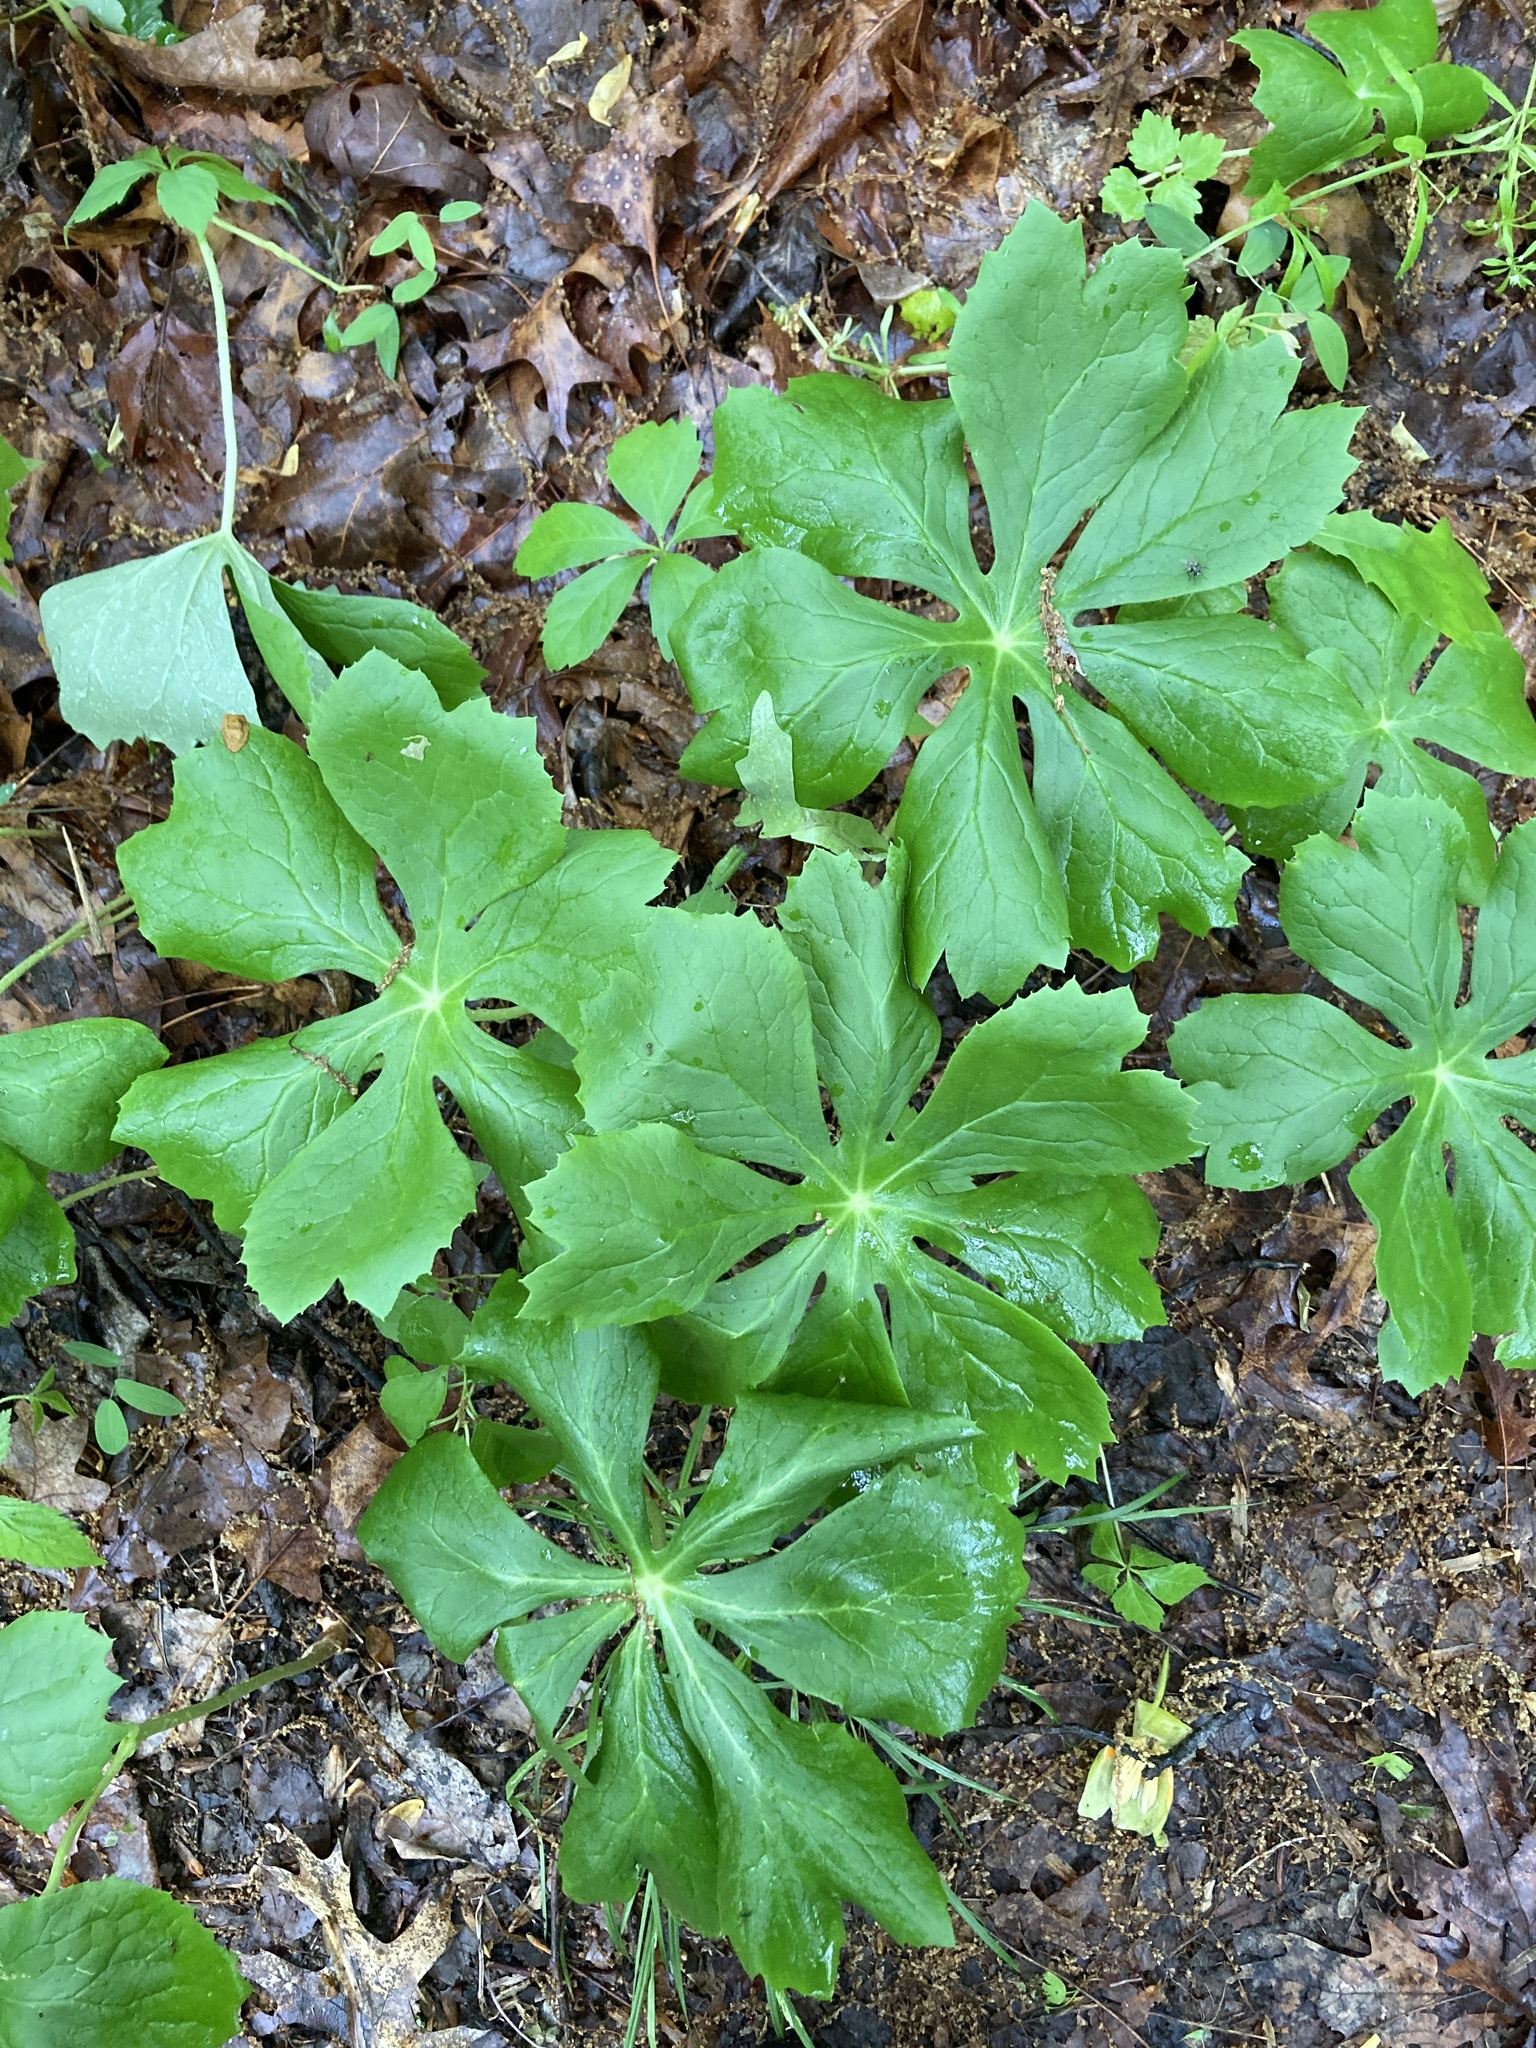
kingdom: Plantae
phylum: Tracheophyta
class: Magnoliopsida
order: Ranunculales
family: Berberidaceae
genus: Podophyllum
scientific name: Podophyllum peltatum
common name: Wild mandrake
